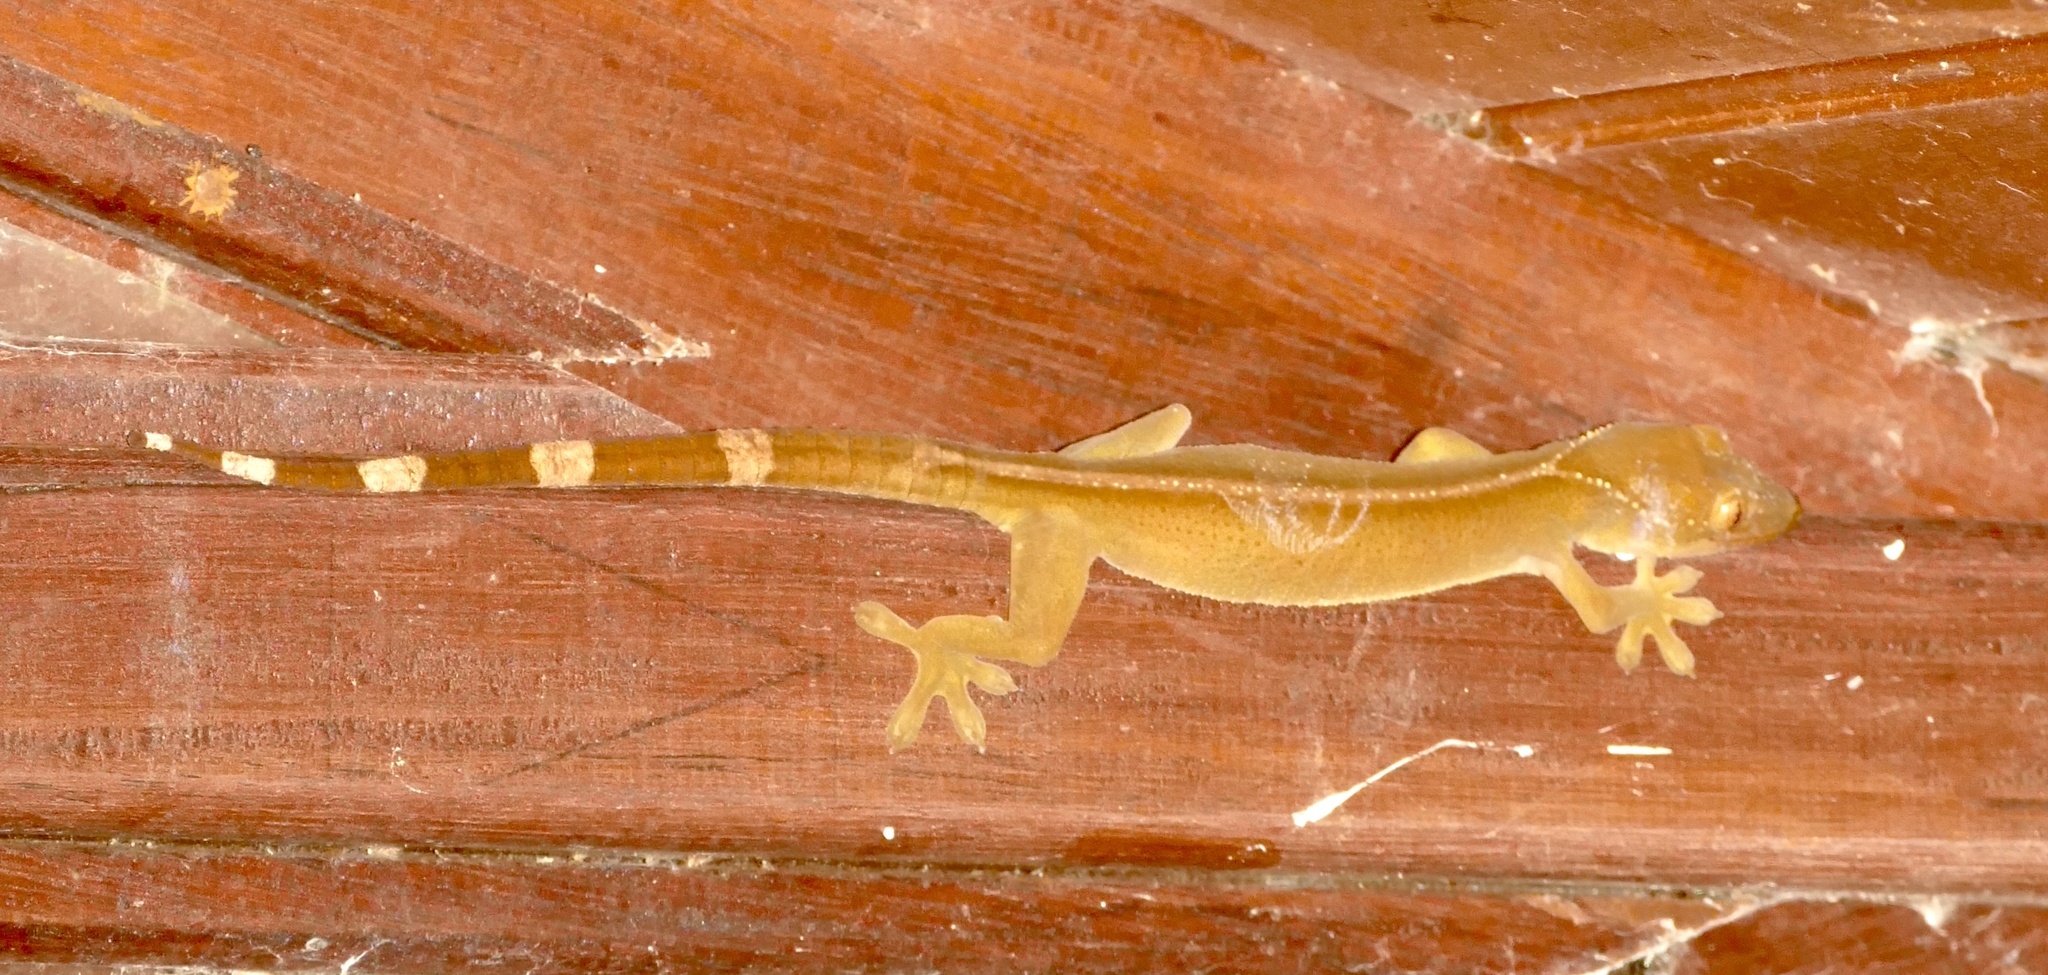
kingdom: Animalia
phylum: Chordata
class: Squamata
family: Gekkonidae
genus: Gekko
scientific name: Gekko vittatus
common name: Indo-pacific ghost gecko
